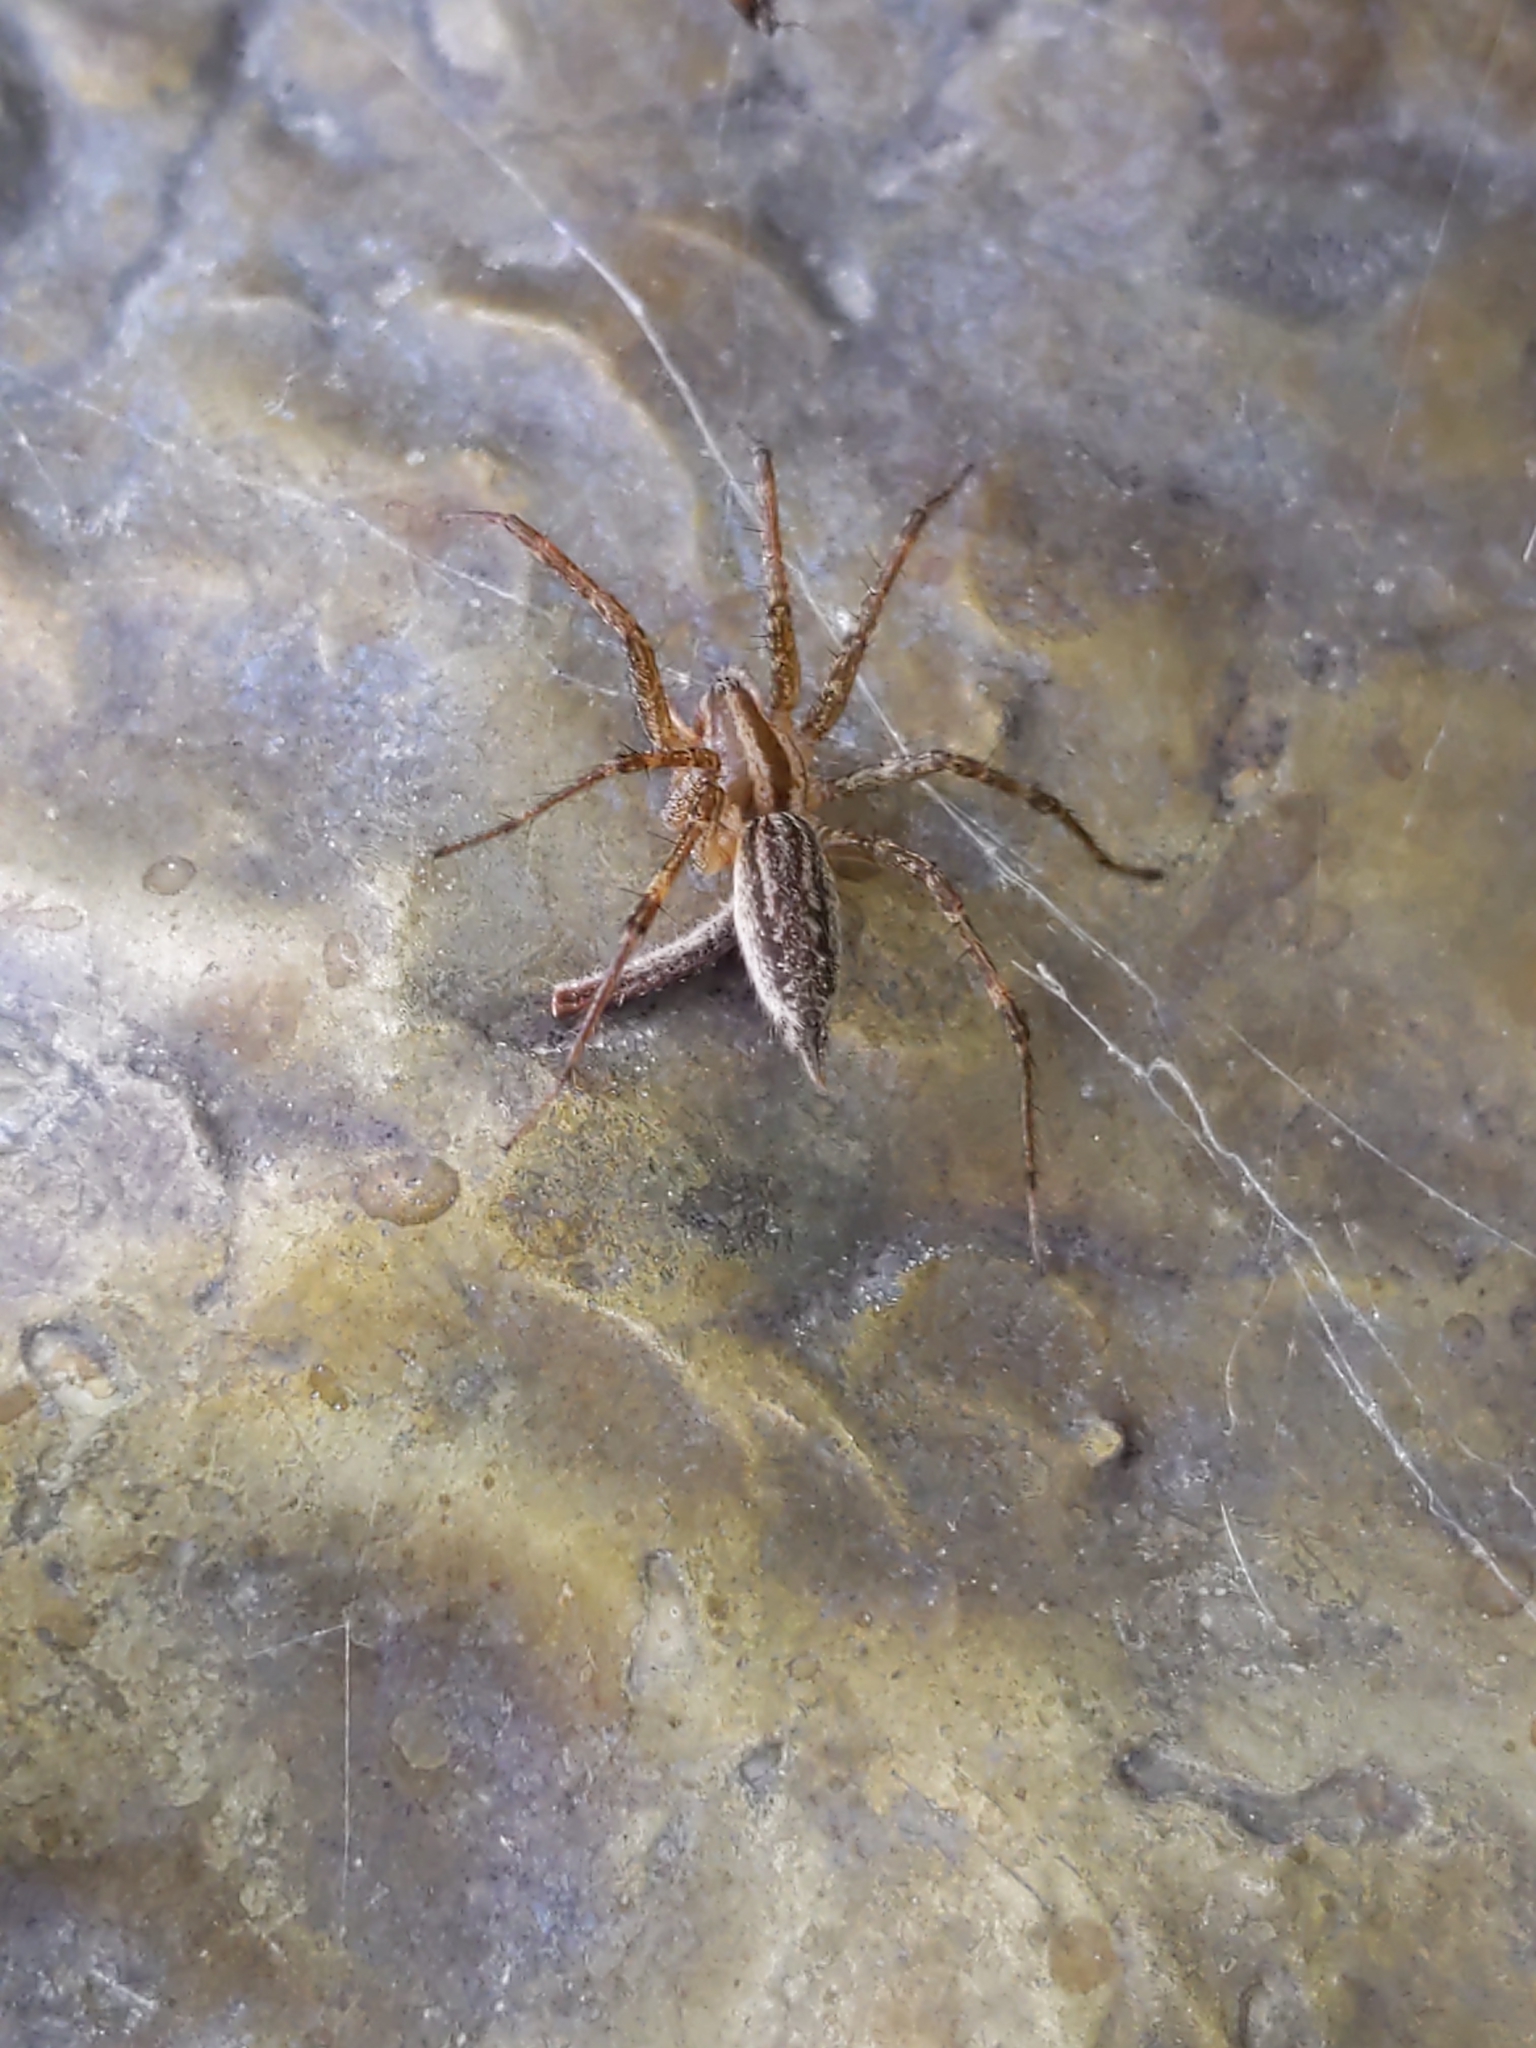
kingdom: Animalia
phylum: Arthropoda
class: Arachnida
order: Araneae
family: Agelenidae
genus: Agelenopsis
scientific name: Agelenopsis
